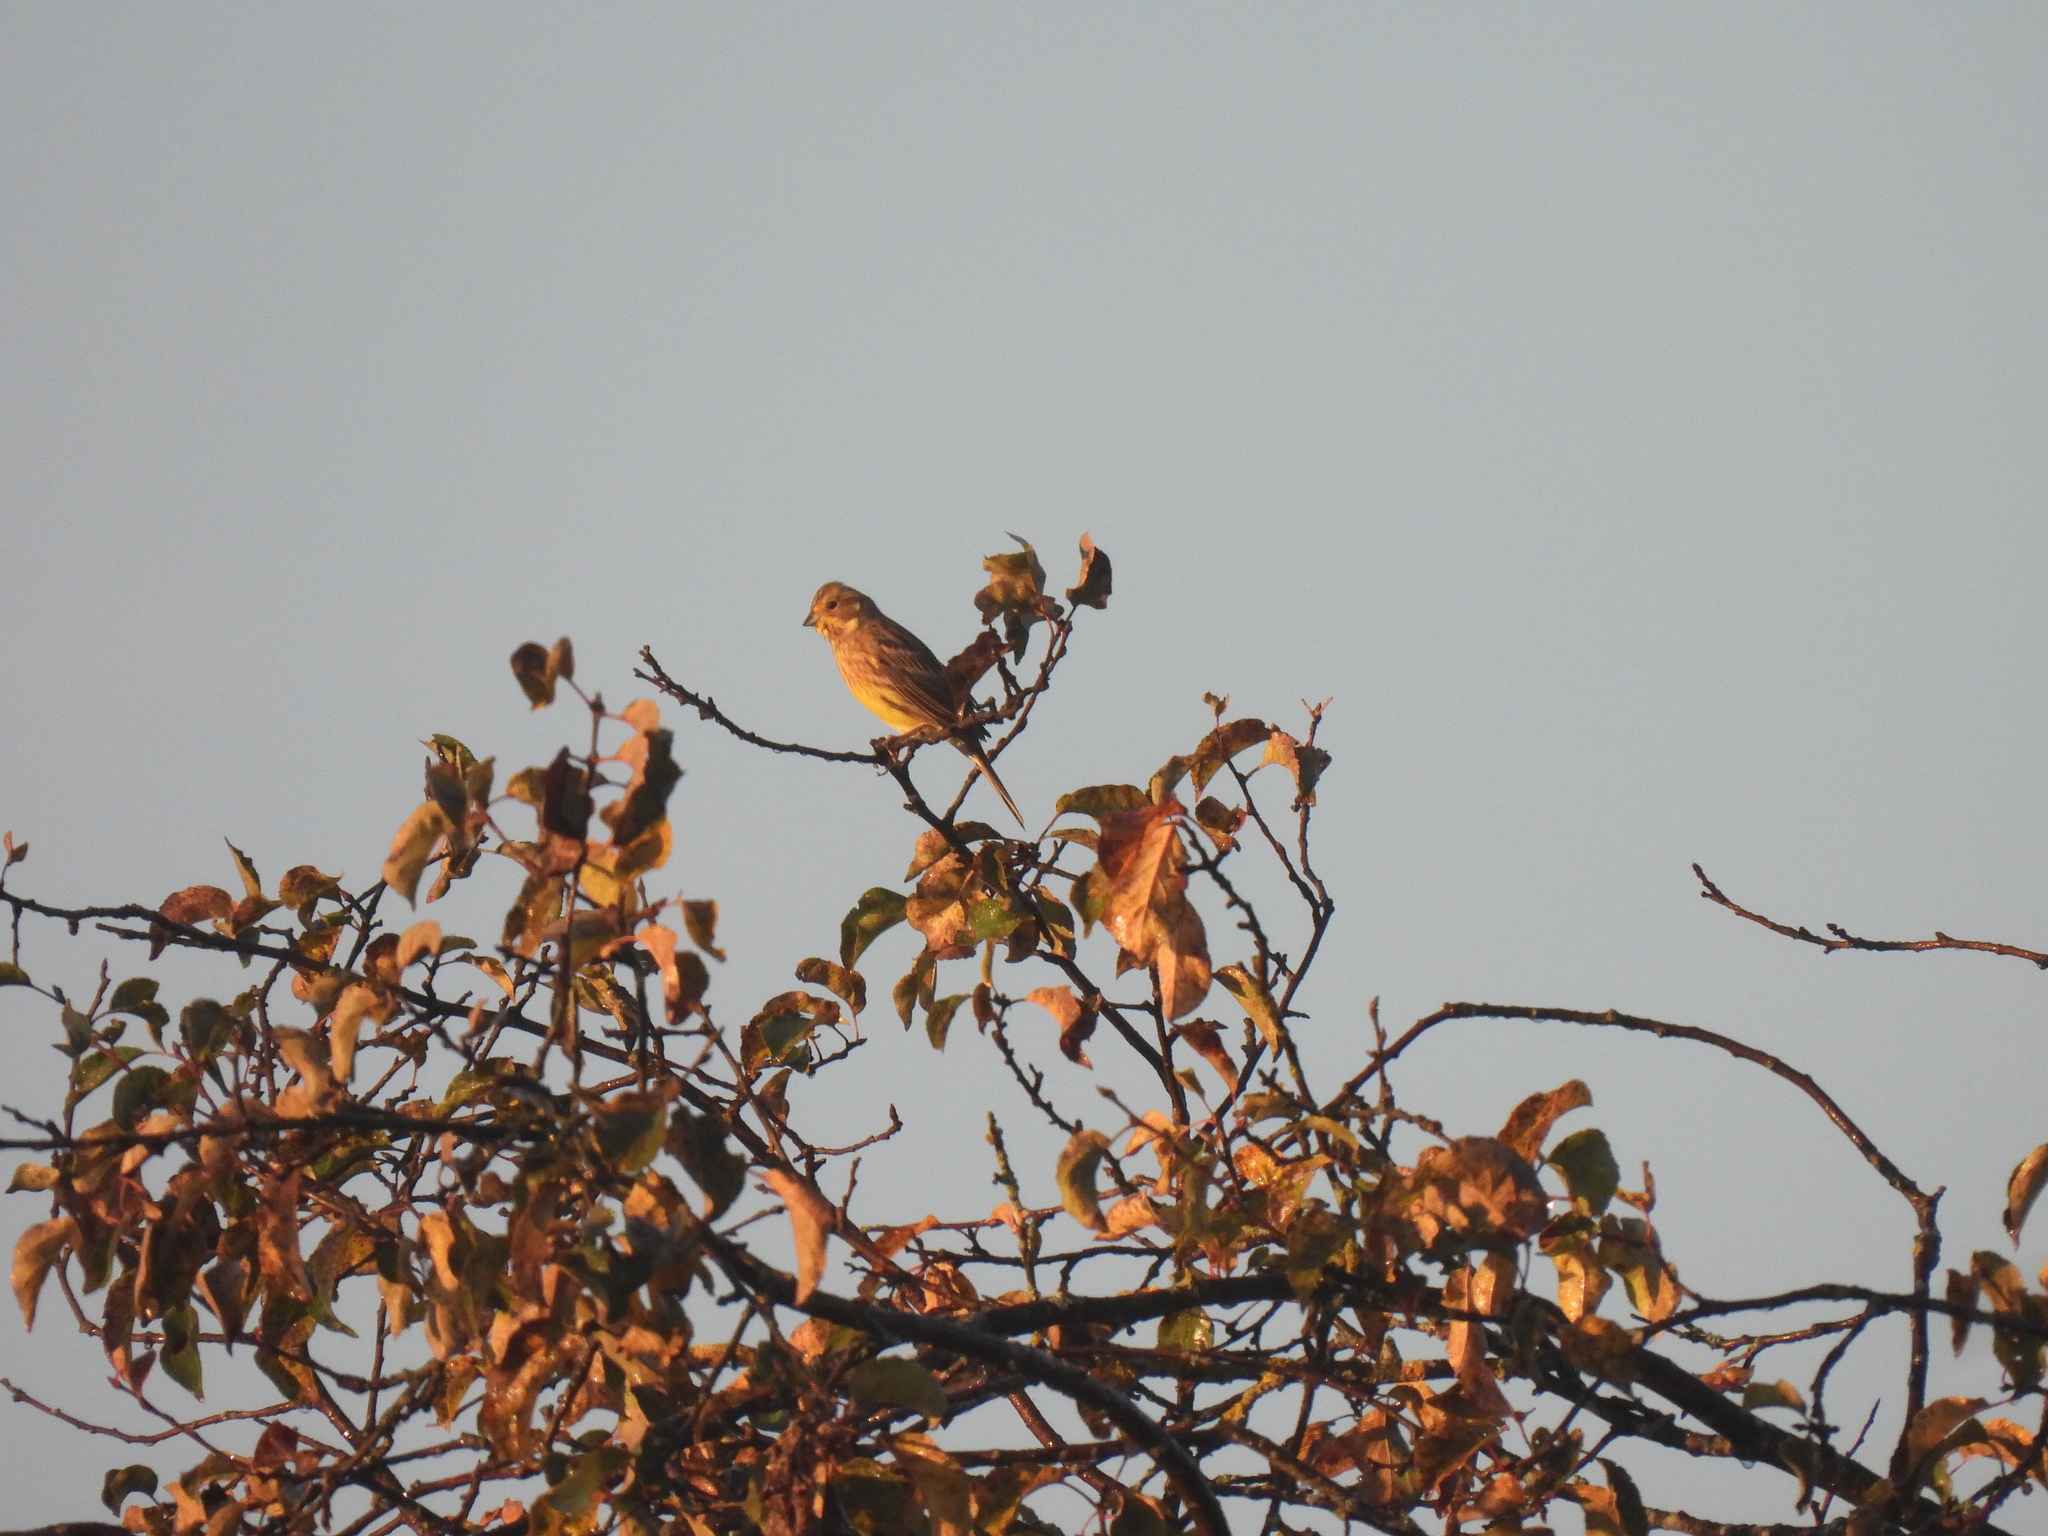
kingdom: Animalia
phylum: Chordata
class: Aves
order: Passeriformes
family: Emberizidae
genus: Emberiza
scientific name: Emberiza citrinella
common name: Yellowhammer
